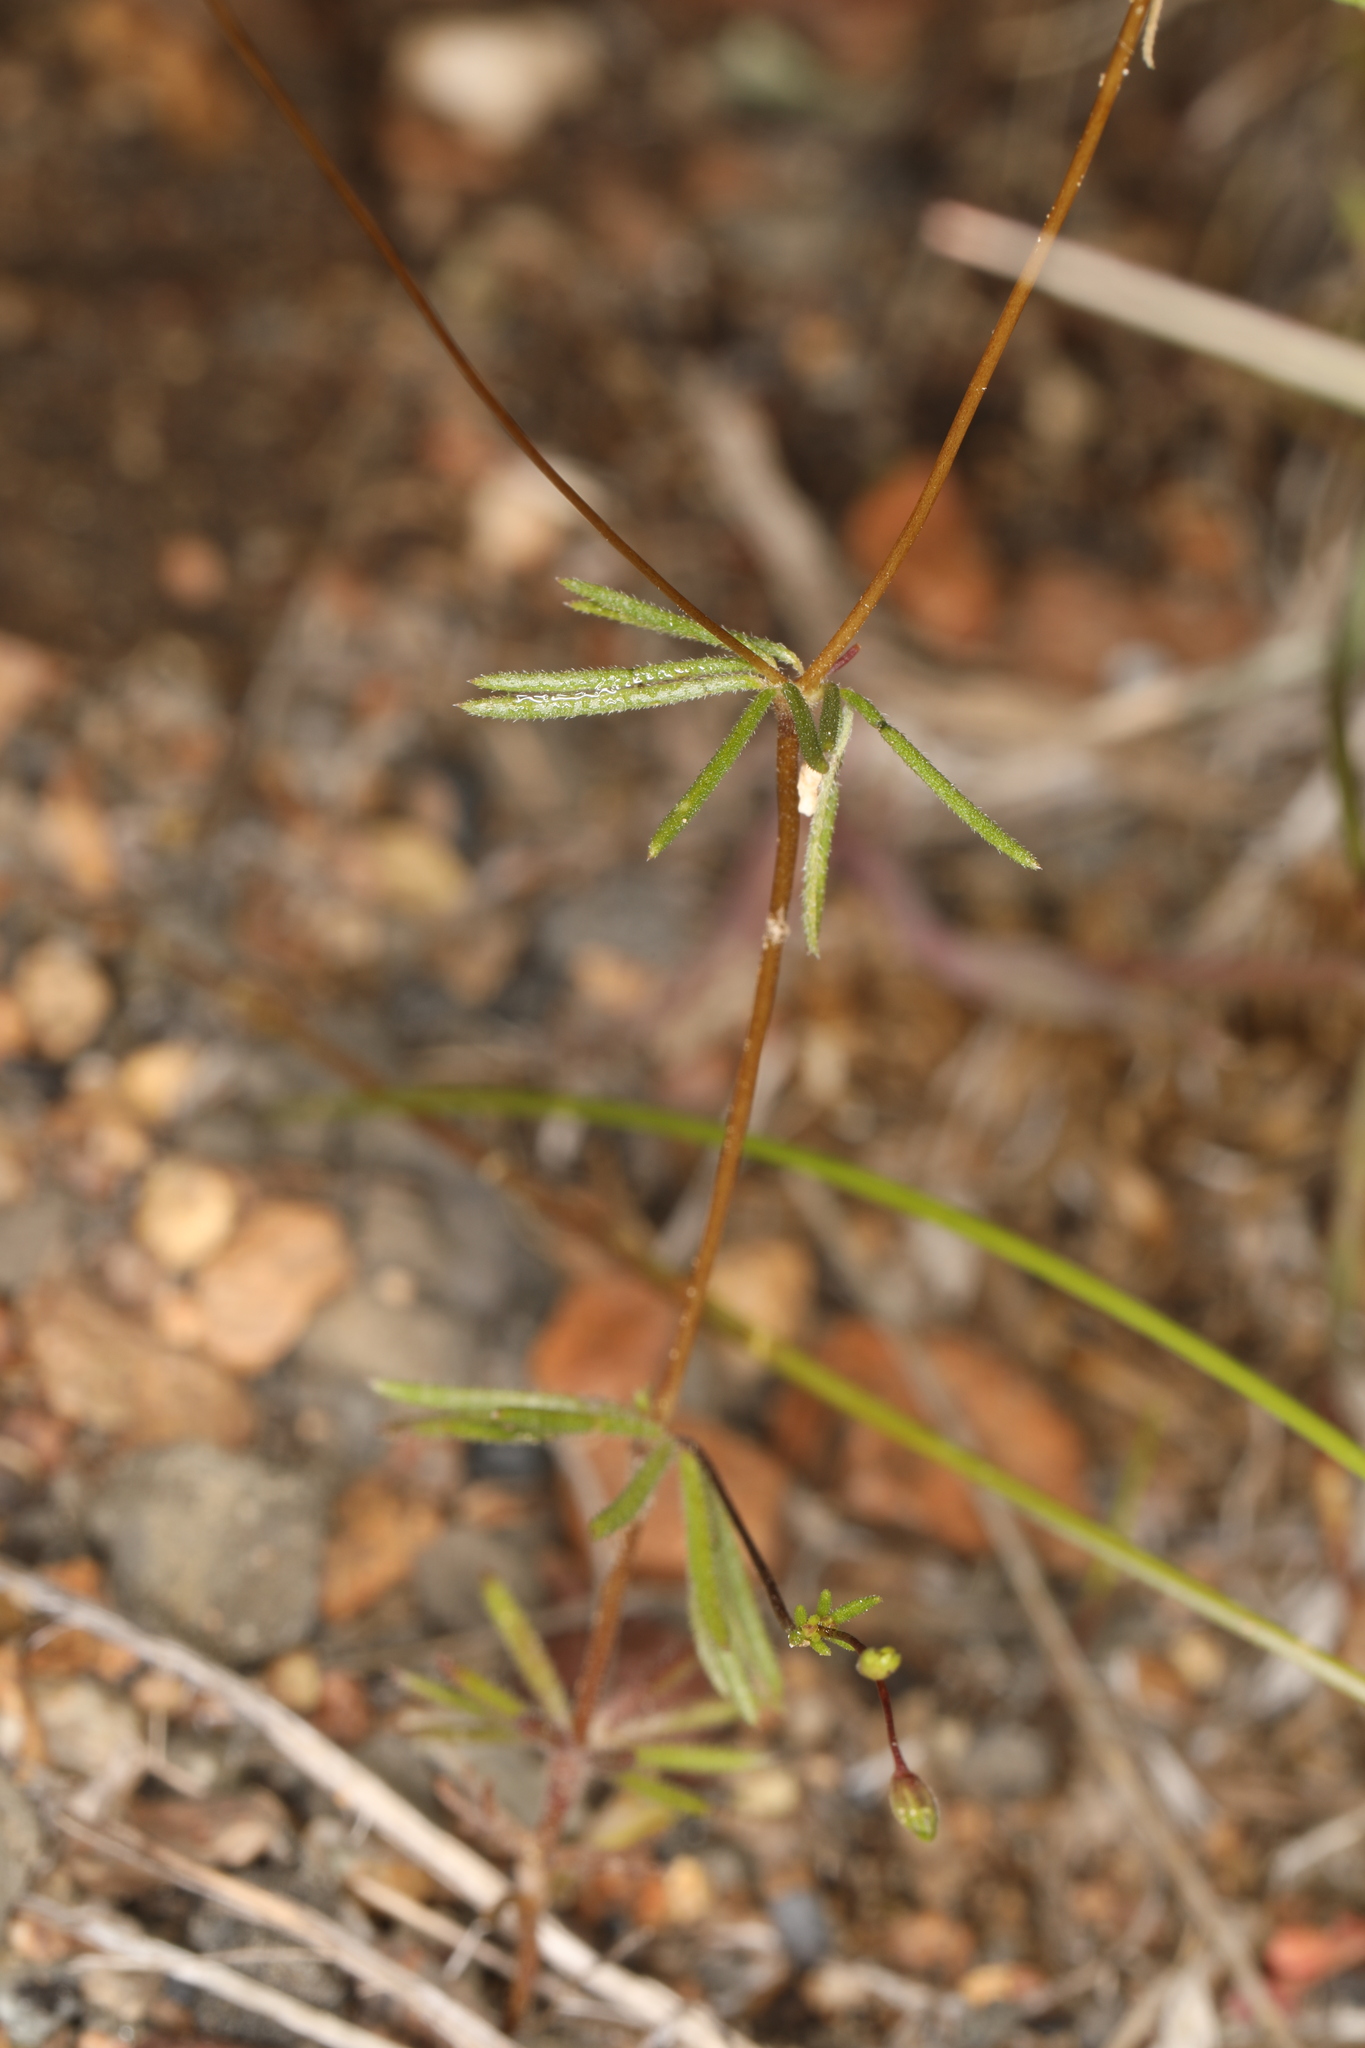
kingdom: Plantae
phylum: Tracheophyta
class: Magnoliopsida
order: Ericales
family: Polemoniaceae
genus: Leptosiphon
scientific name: Leptosiphon septentrionalis
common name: Northern linanthus
